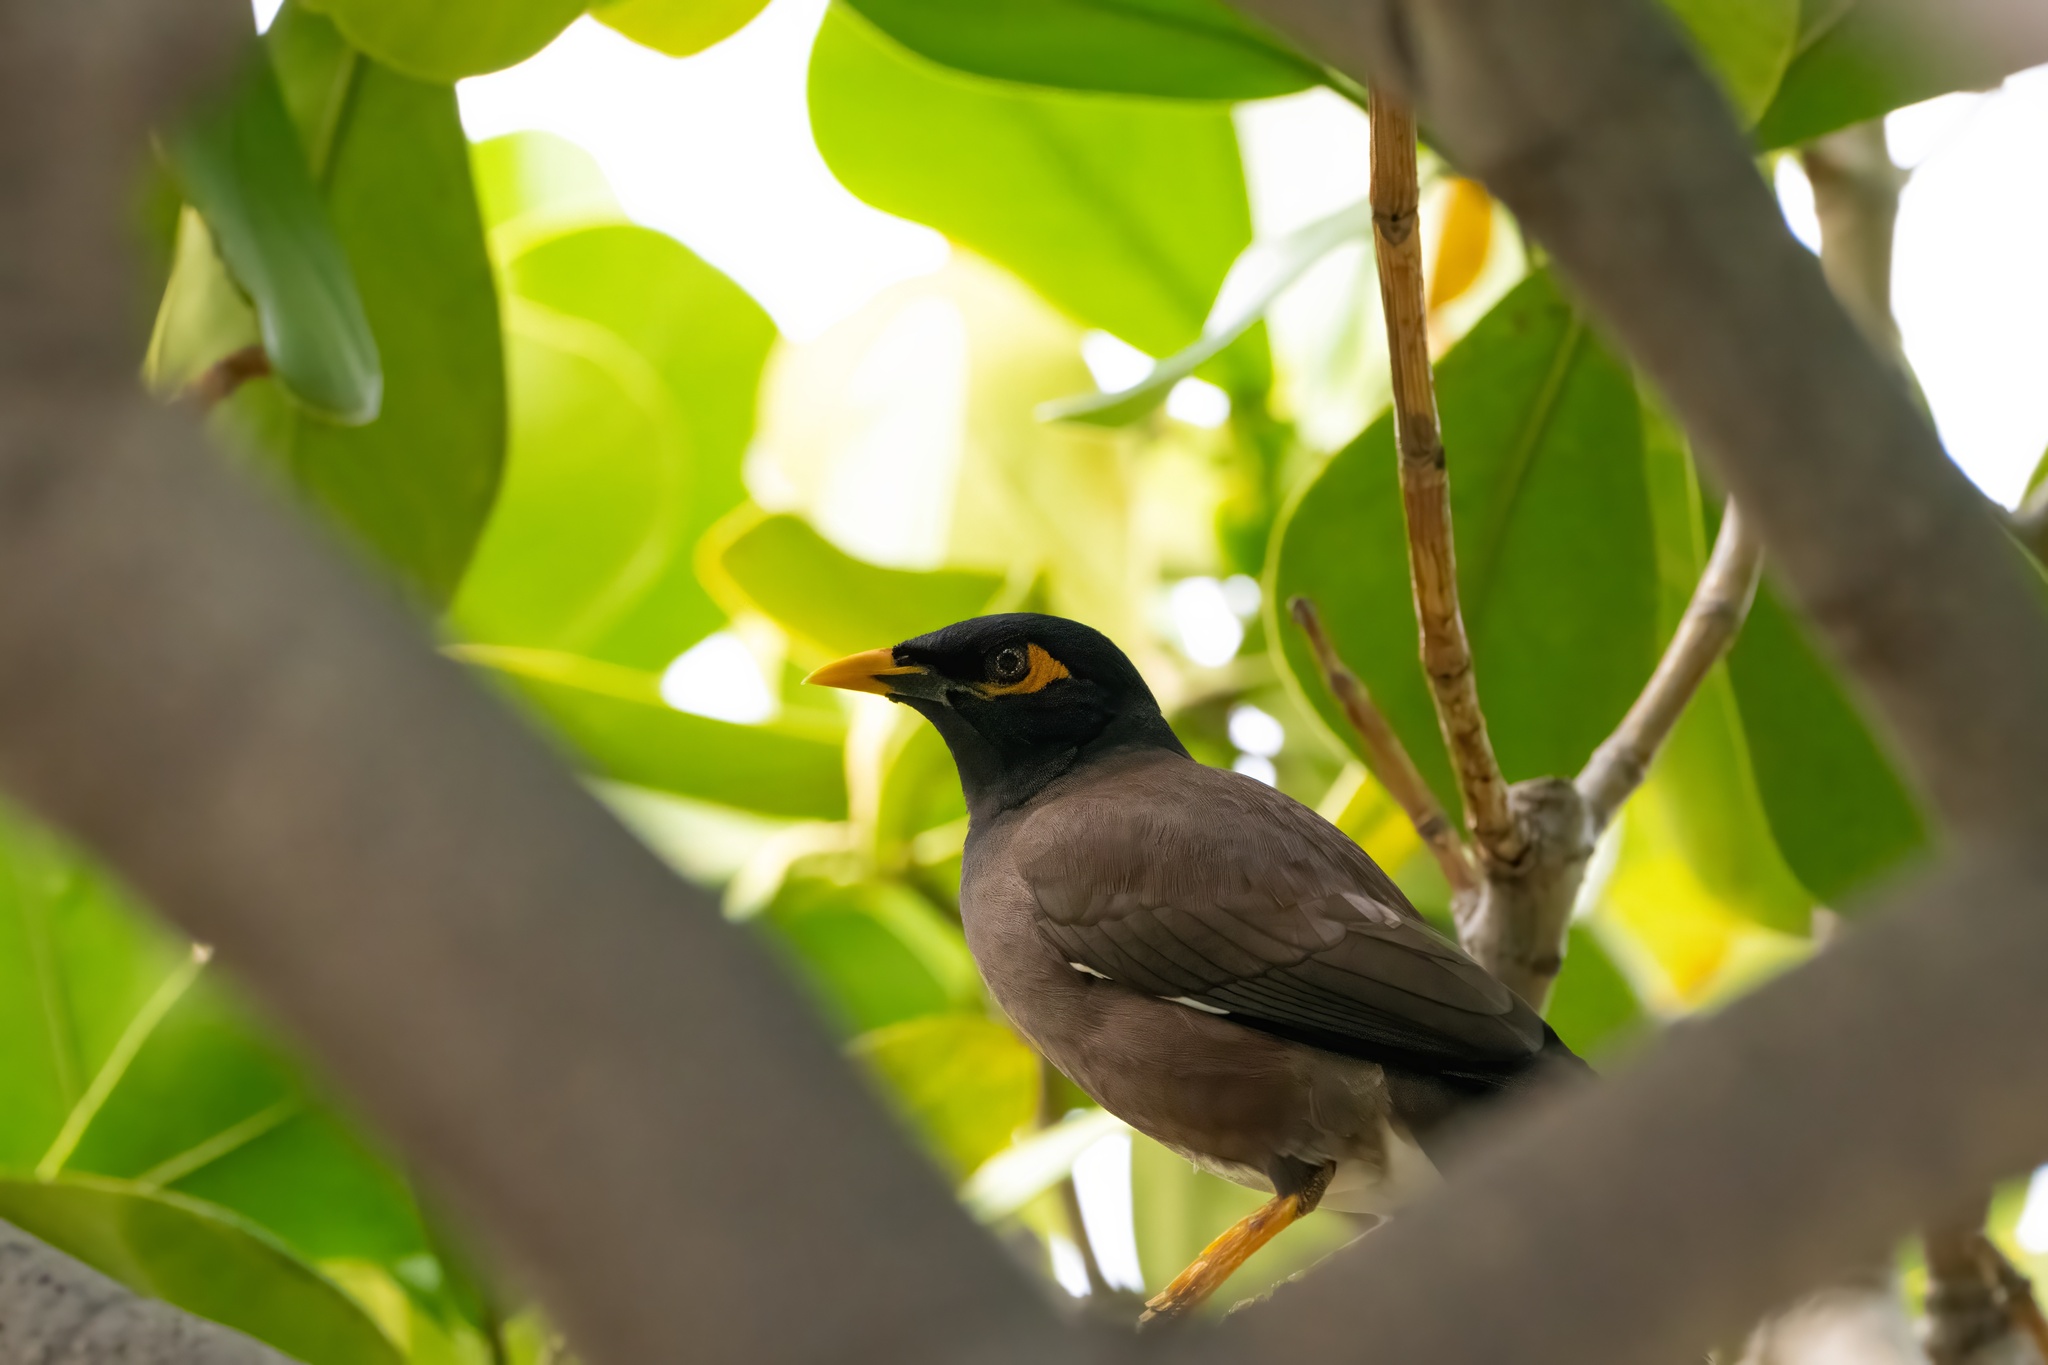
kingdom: Animalia
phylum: Chordata
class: Aves
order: Passeriformes
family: Sturnidae
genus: Acridotheres
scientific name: Acridotheres tristis
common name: Common myna
